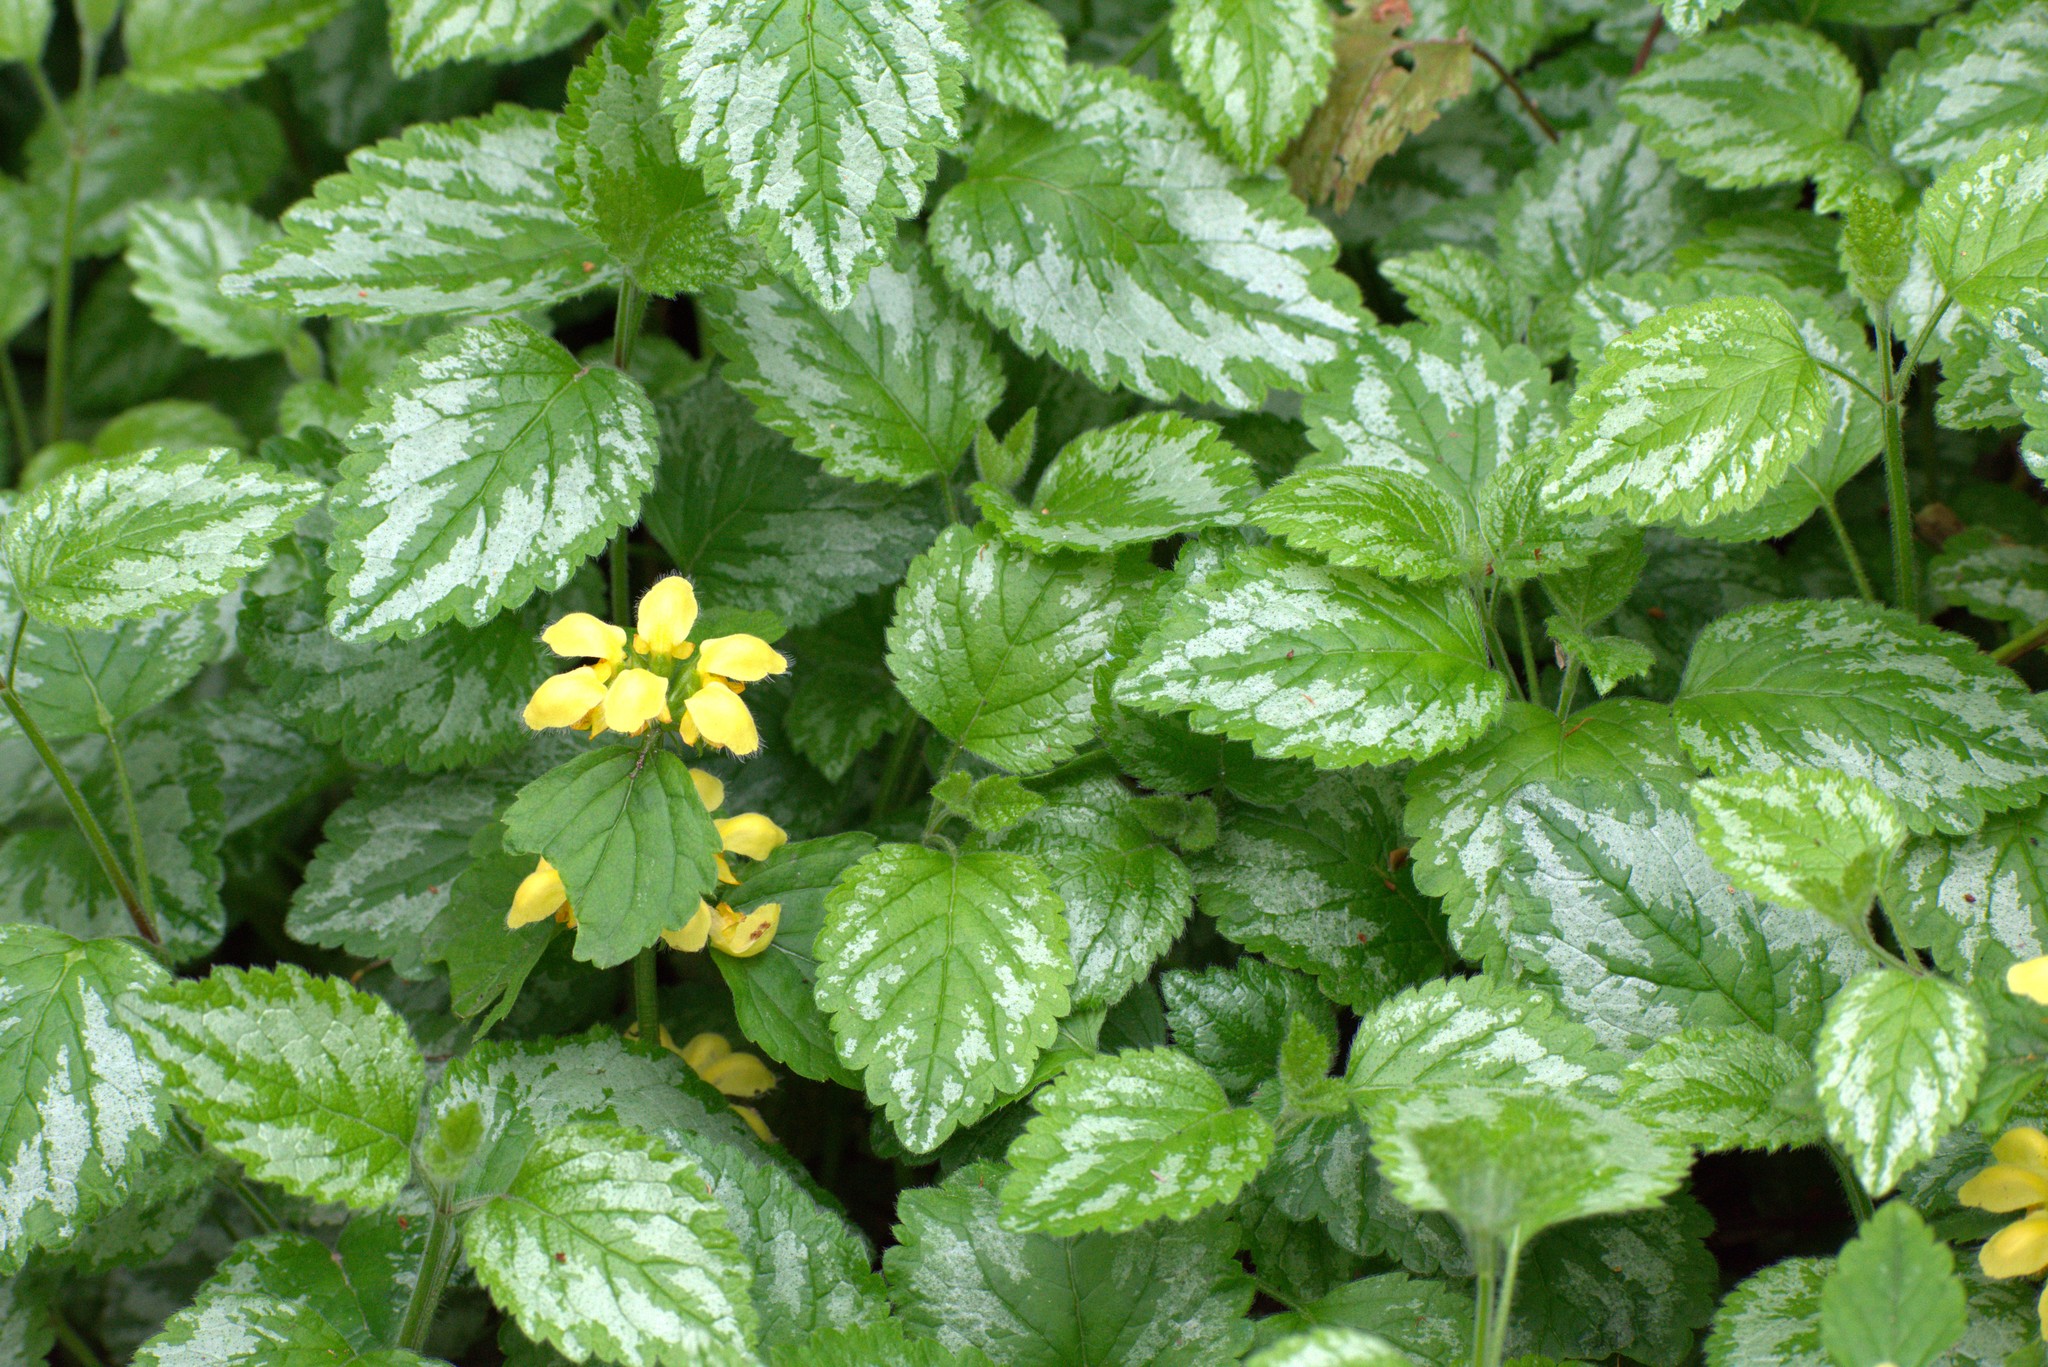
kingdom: Plantae
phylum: Tracheophyta
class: Magnoliopsida
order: Lamiales
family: Lamiaceae
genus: Lamium
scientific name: Lamium galeobdolon
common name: Yellow archangel
